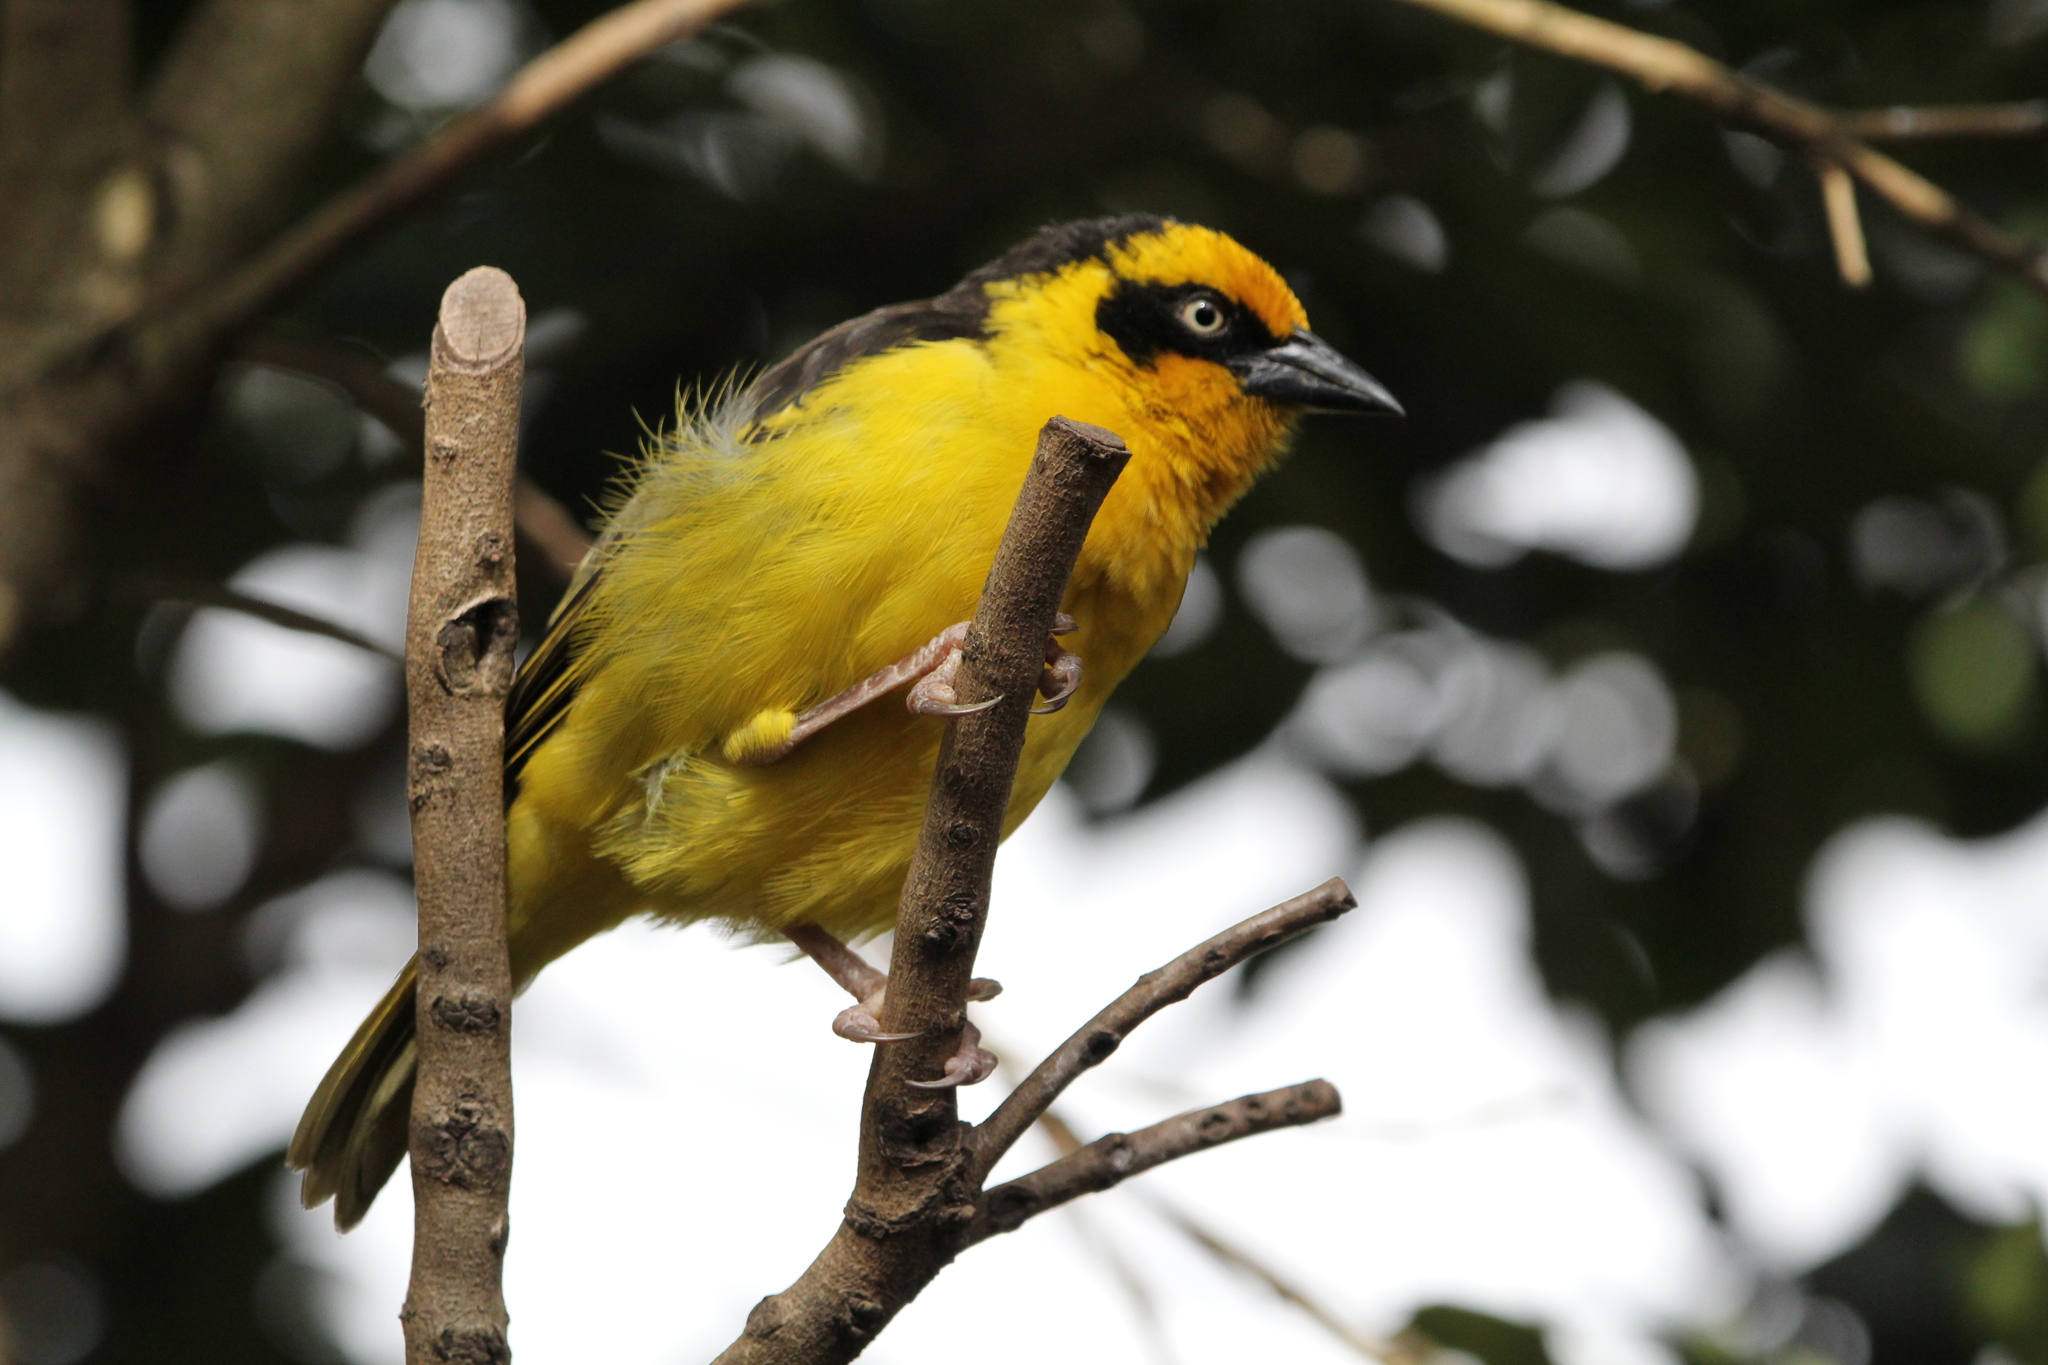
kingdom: Animalia
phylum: Chordata
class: Aves
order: Passeriformes
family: Ploceidae
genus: Ploceus
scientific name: Ploceus baglafecht
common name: Baglafecht weaver
